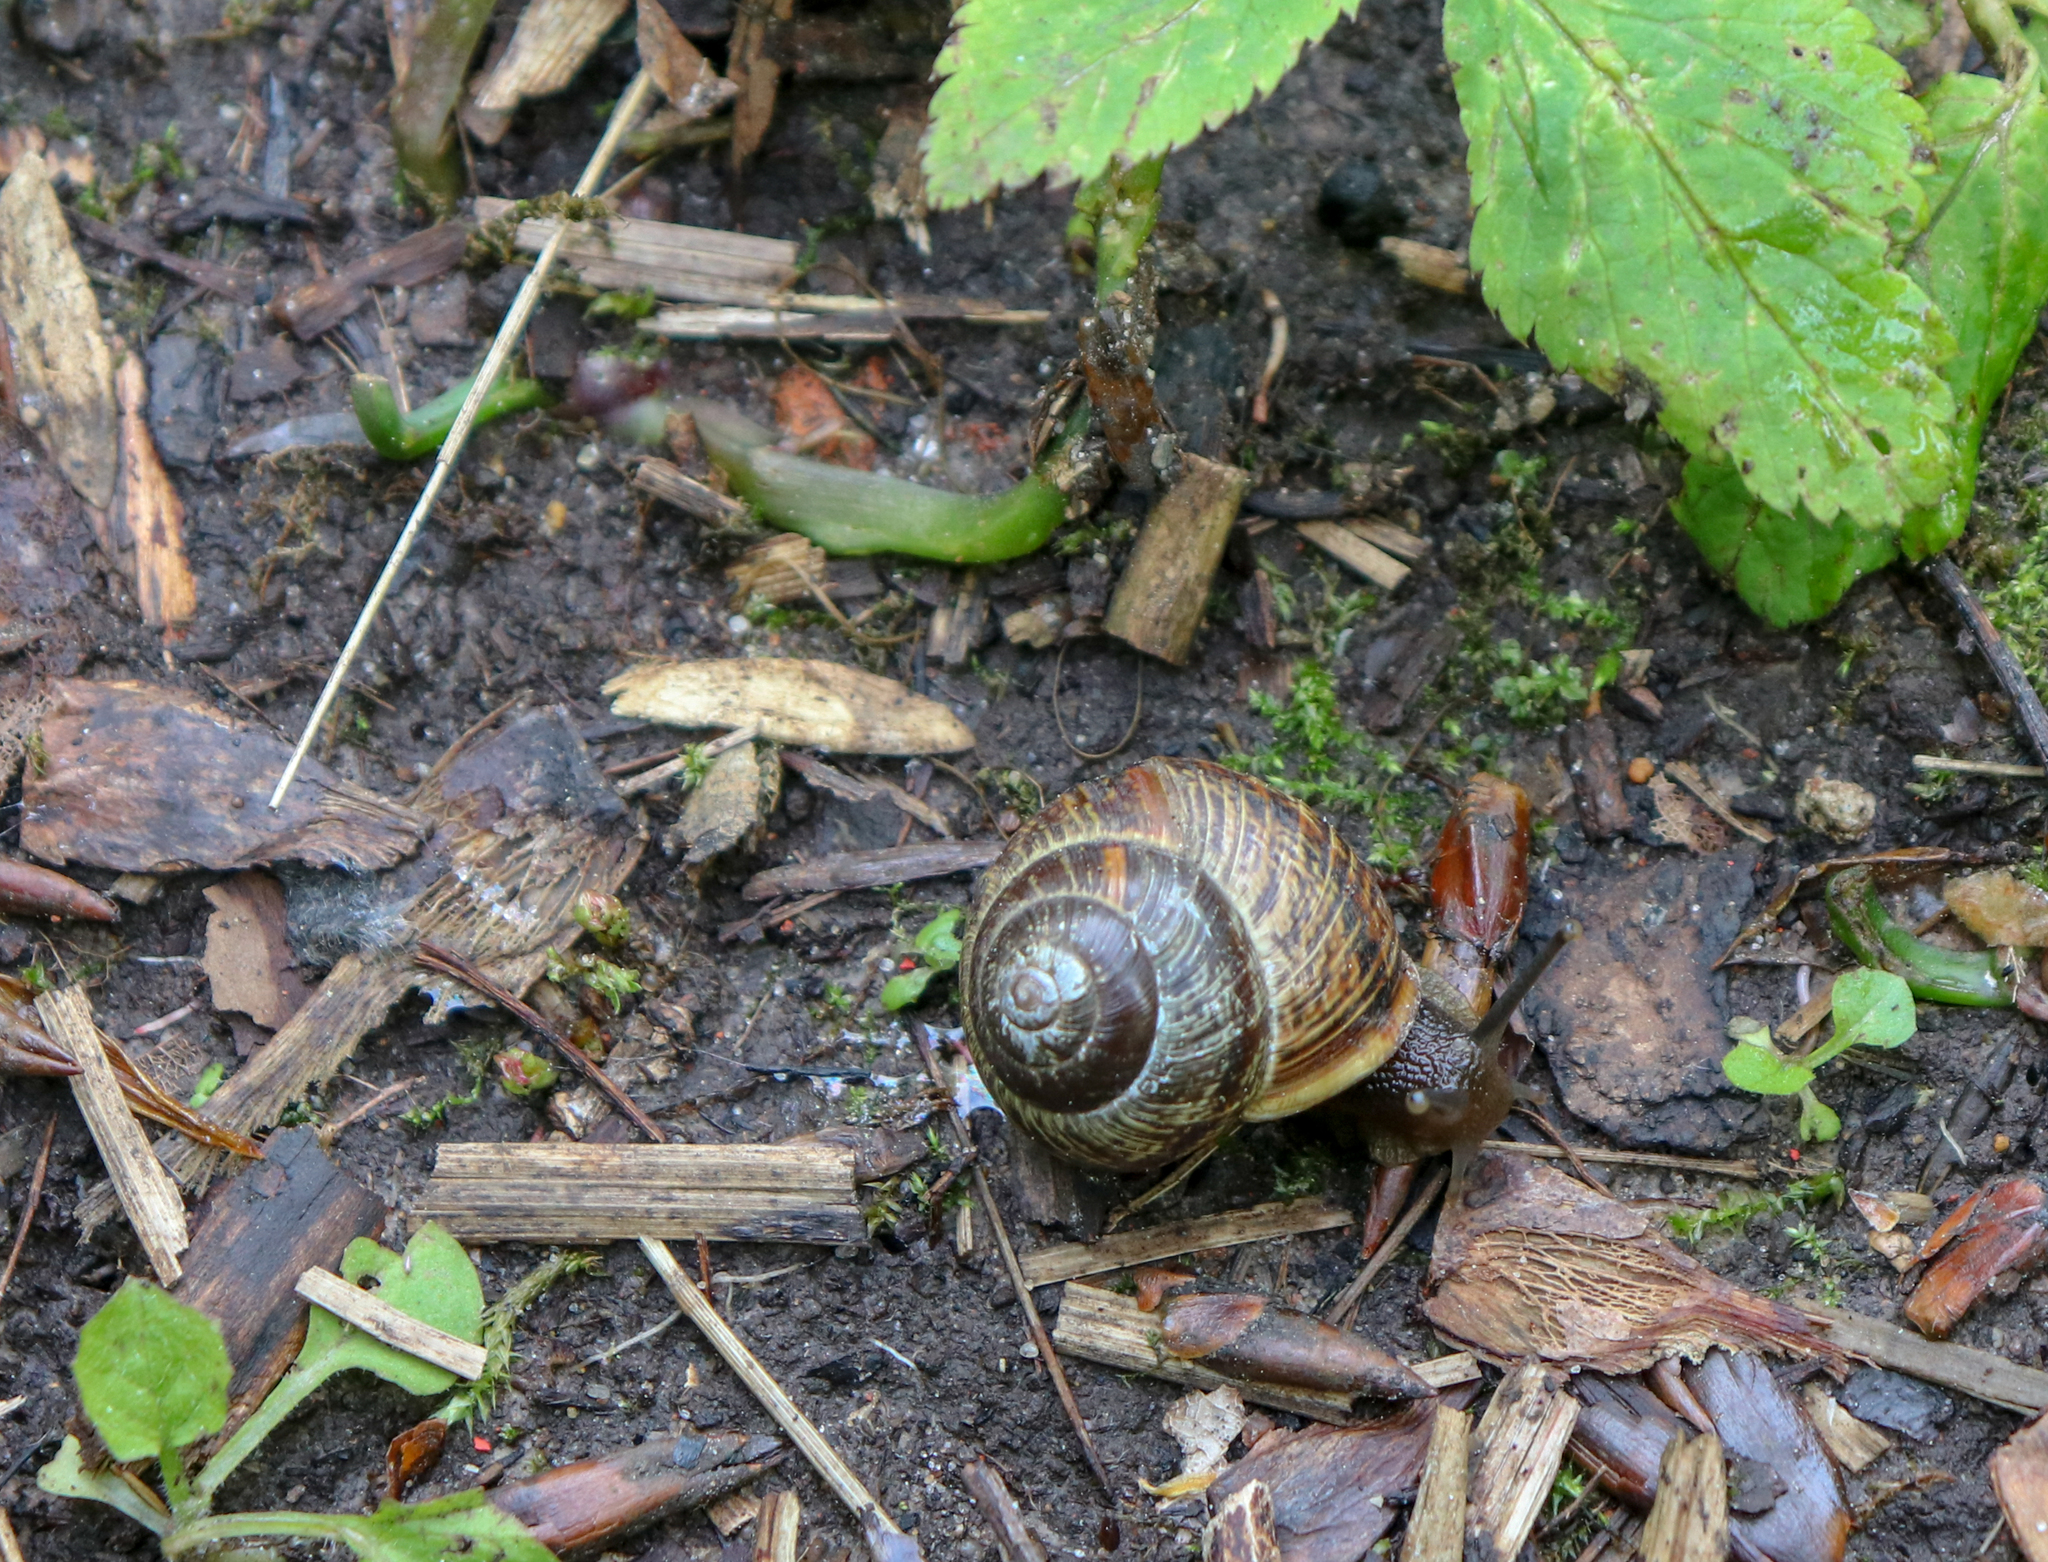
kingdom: Animalia
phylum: Mollusca
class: Gastropoda
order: Stylommatophora
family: Helicidae
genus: Arianta
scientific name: Arianta arbustorum
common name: Copse snail
